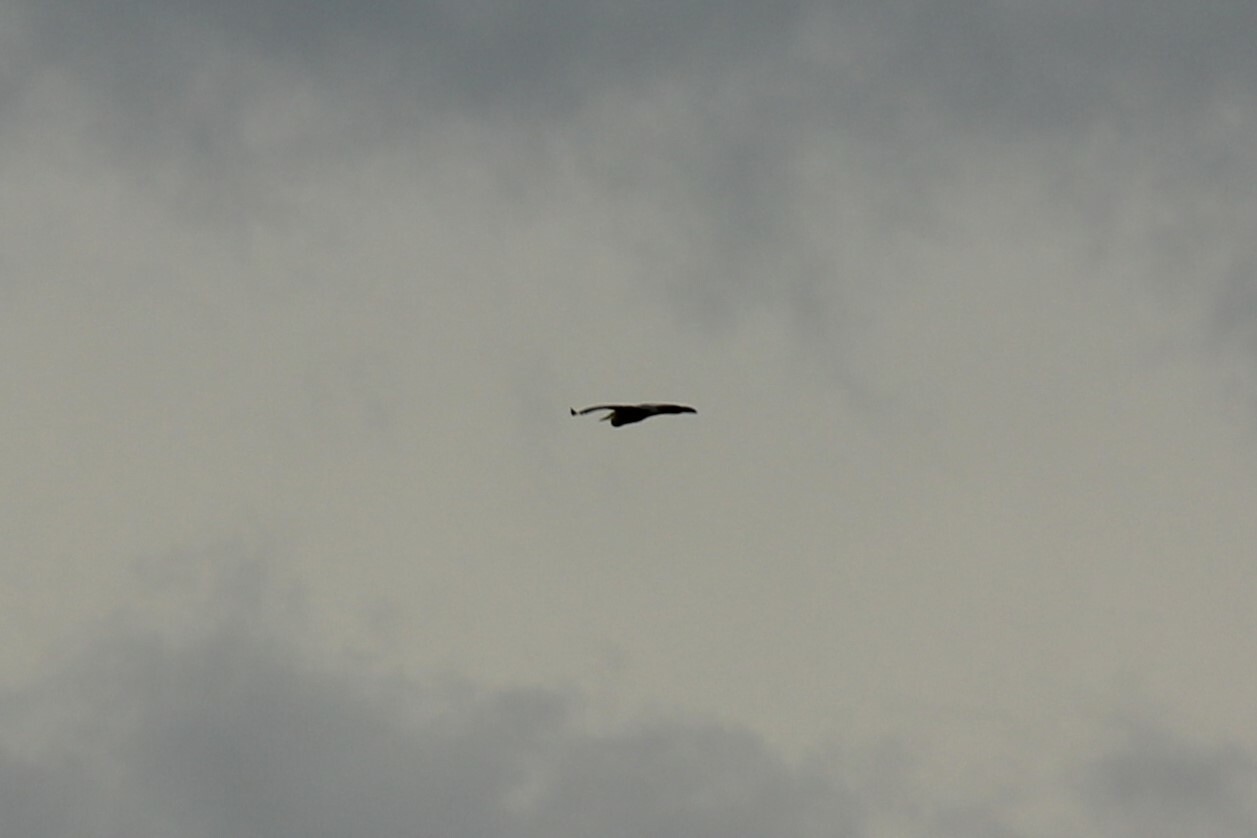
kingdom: Animalia
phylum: Chordata
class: Aves
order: Pelecaniformes
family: Ardeidae
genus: Ardea
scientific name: Ardea herodias
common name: Great blue heron
